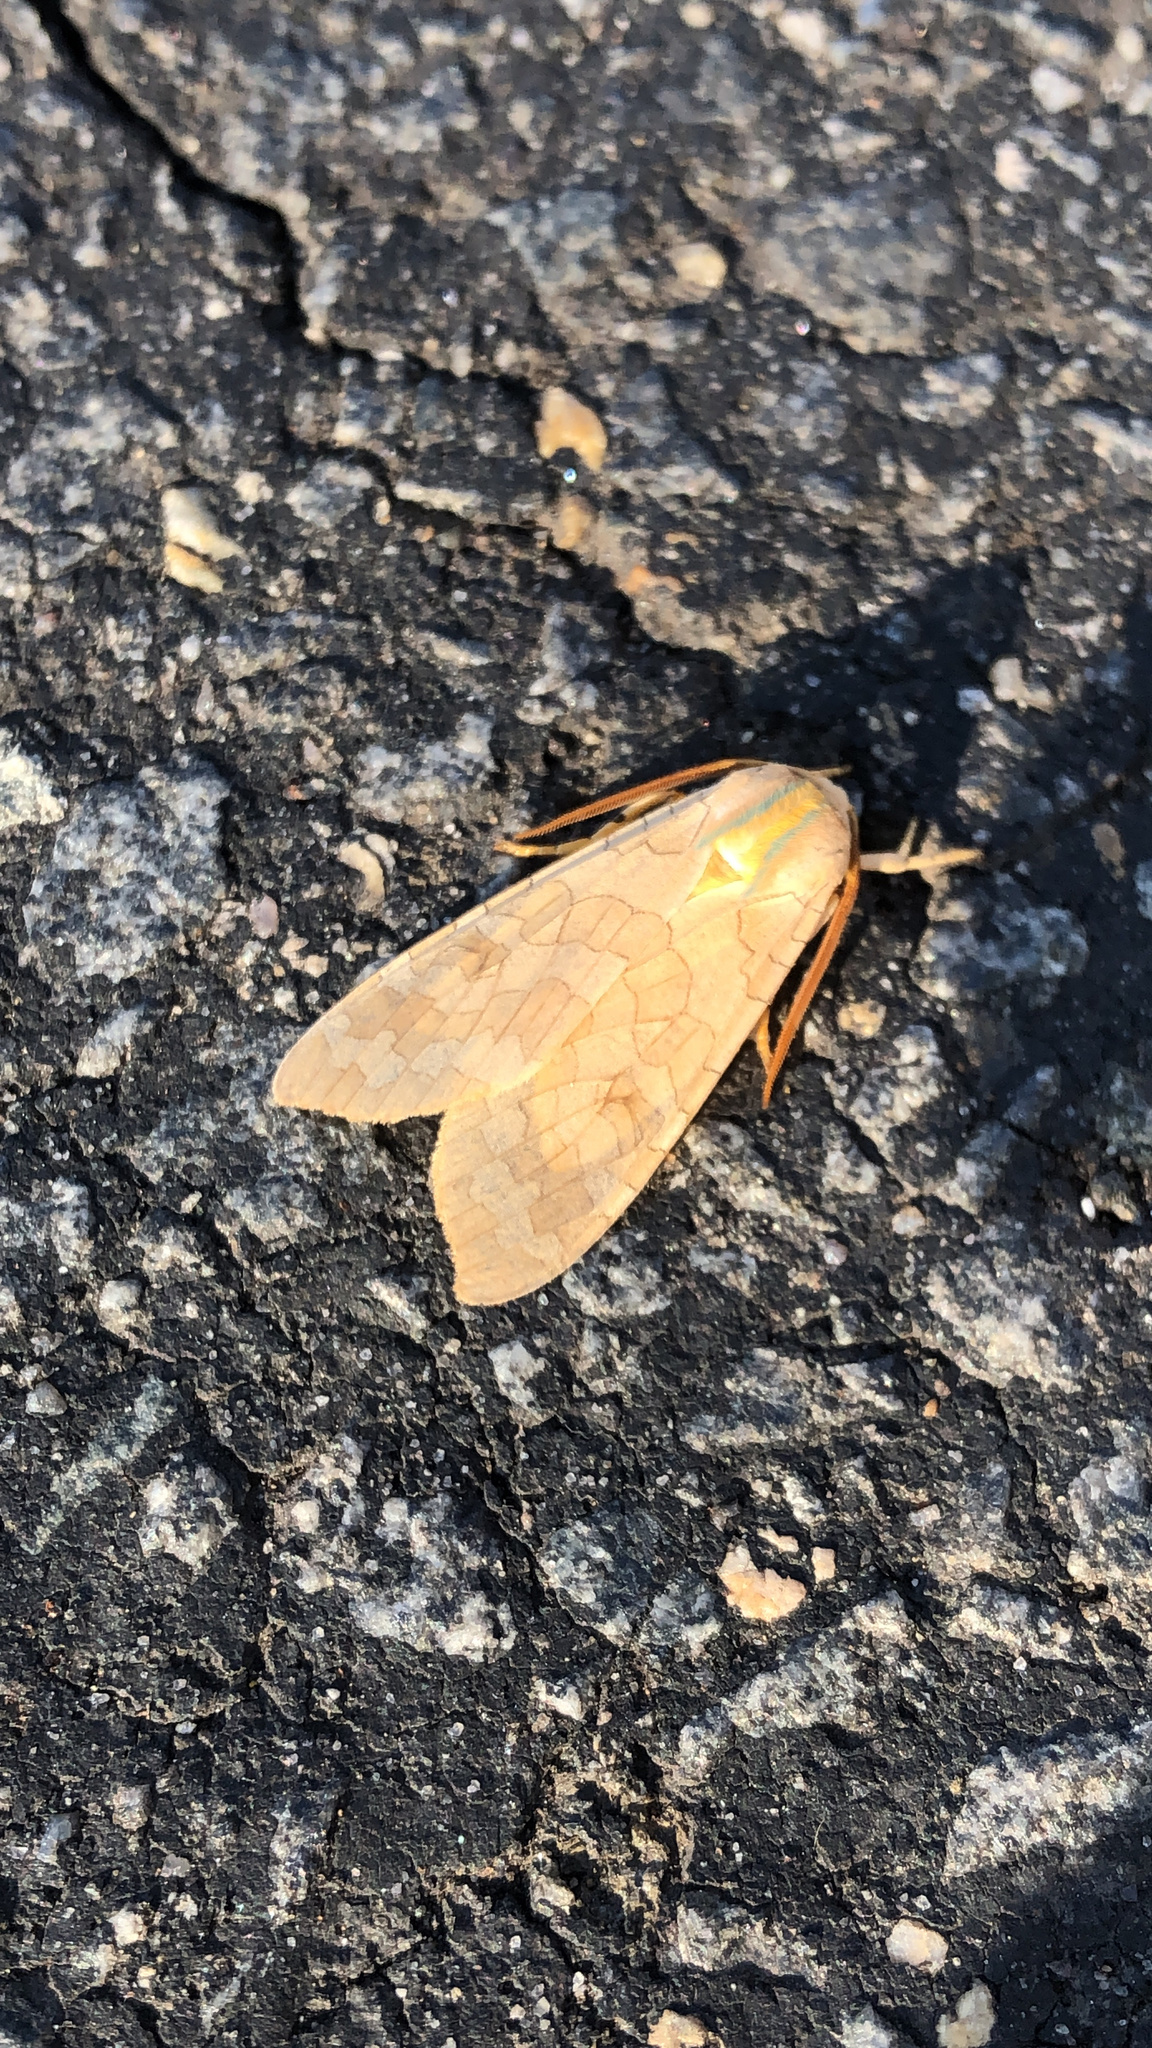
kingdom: Animalia
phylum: Arthropoda
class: Insecta
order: Lepidoptera
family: Erebidae
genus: Halysidota
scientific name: Halysidota
